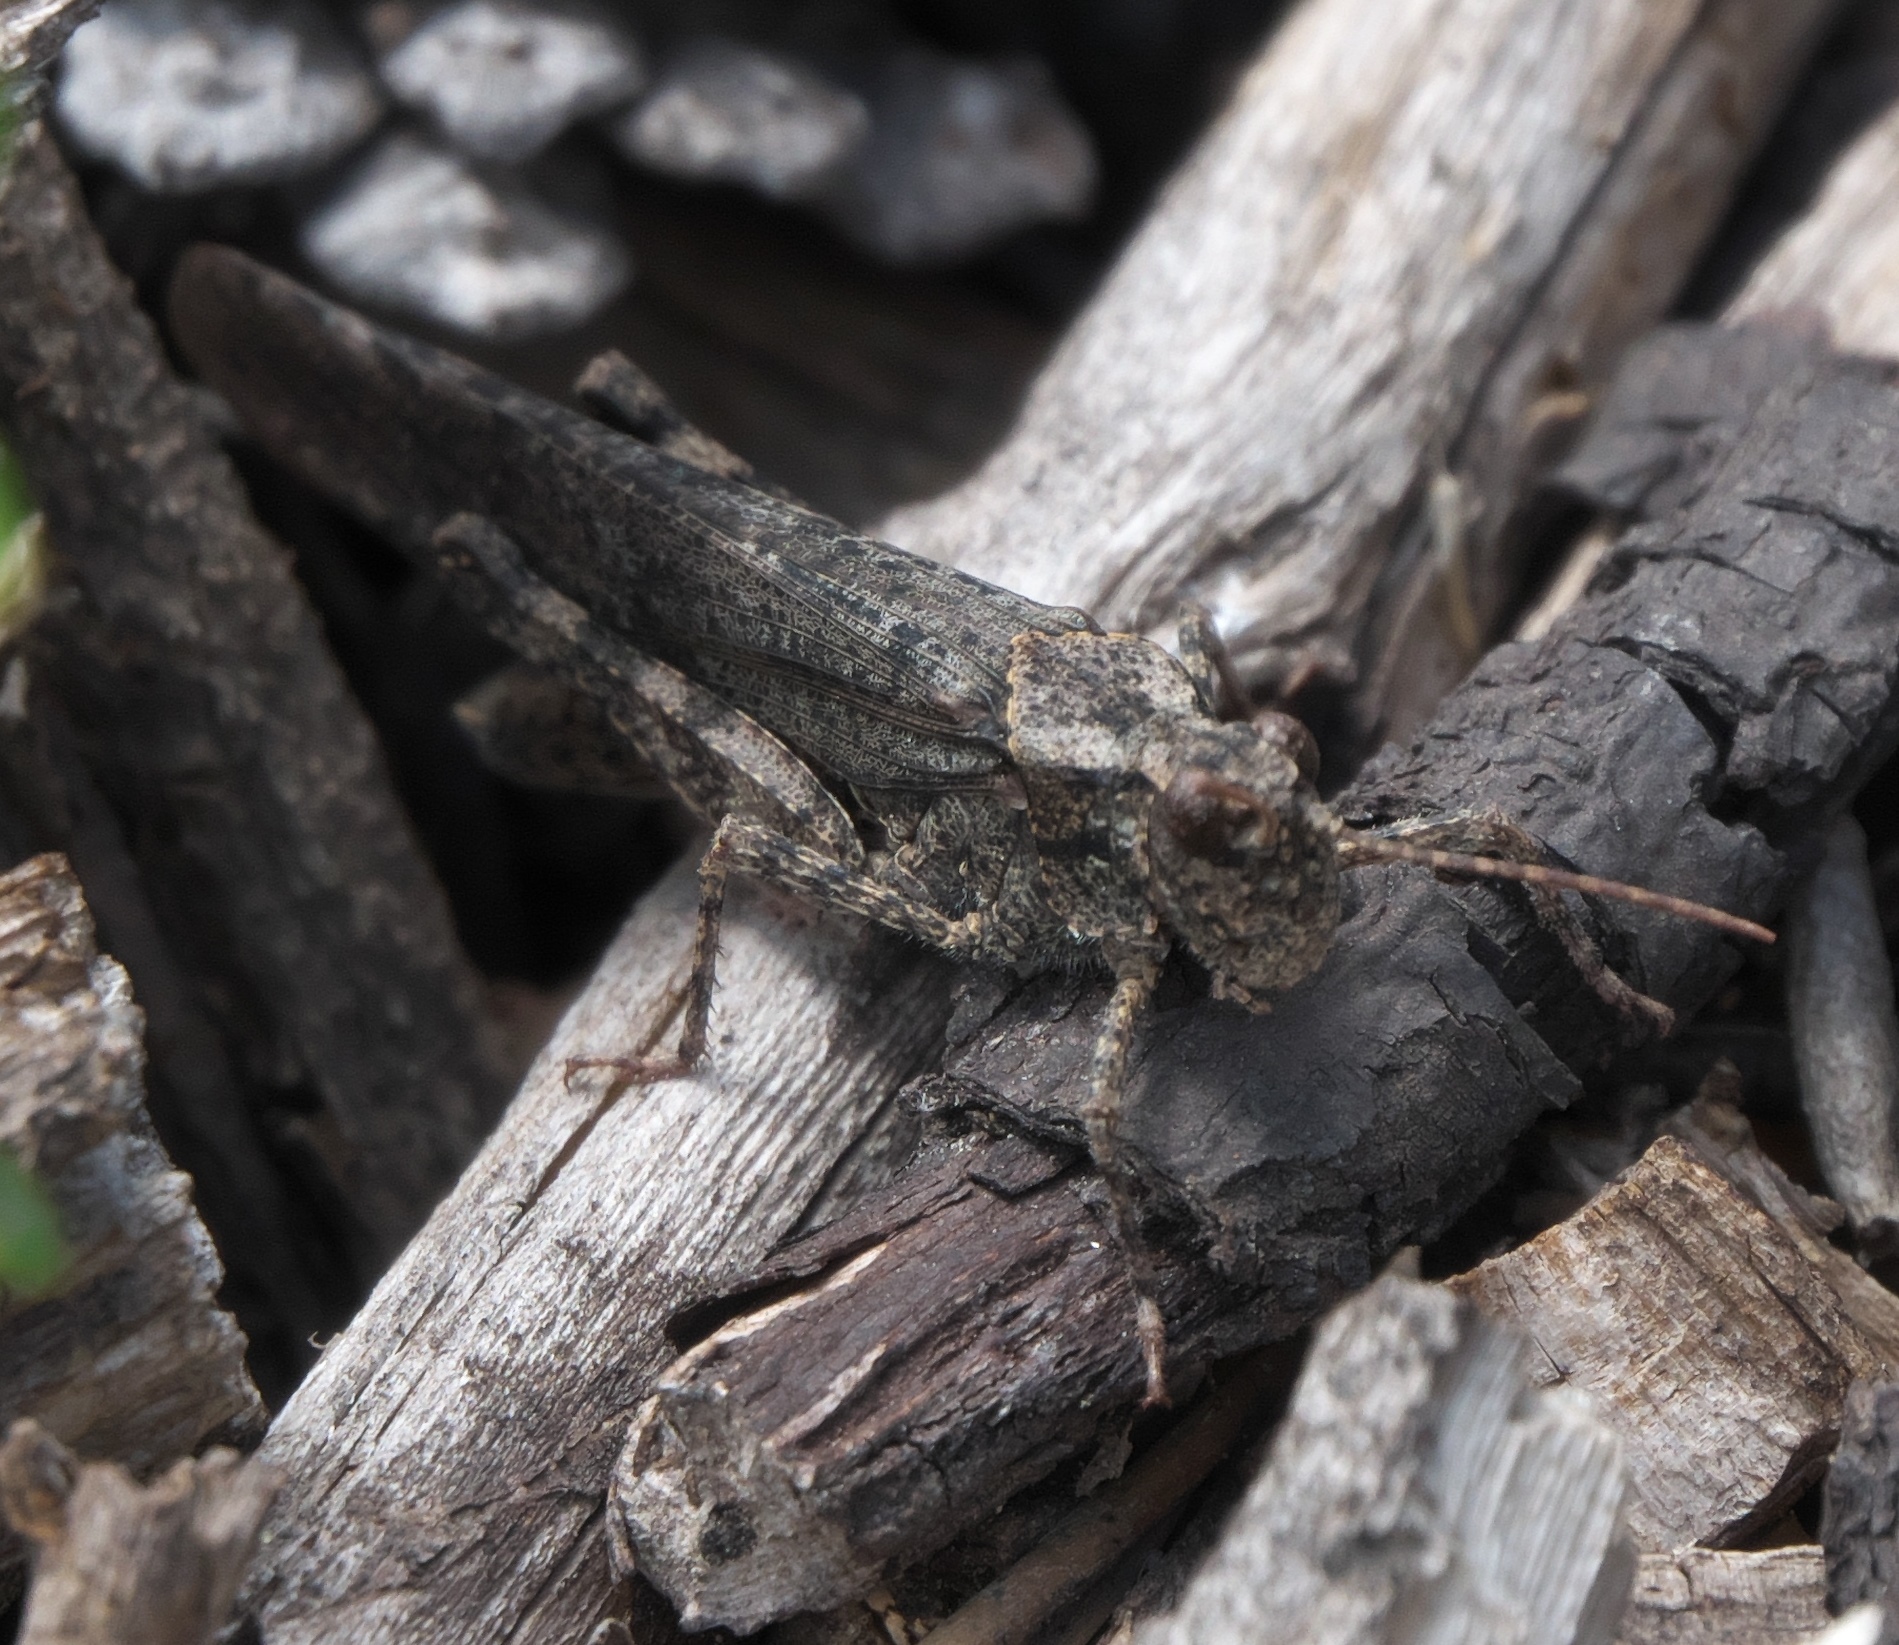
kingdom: Animalia
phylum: Arthropoda
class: Insecta
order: Orthoptera
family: Acrididae
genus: Trimerotropis
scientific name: Trimerotropis verruculata
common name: Crackling forest grasshopper
